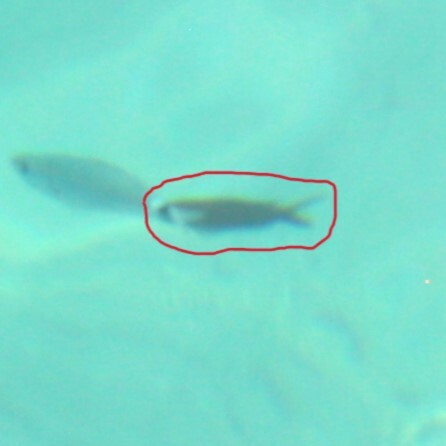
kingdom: Animalia
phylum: Chordata
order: Perciformes
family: Pomacentridae
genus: Chromis
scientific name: Chromis chromis
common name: Damselfish
